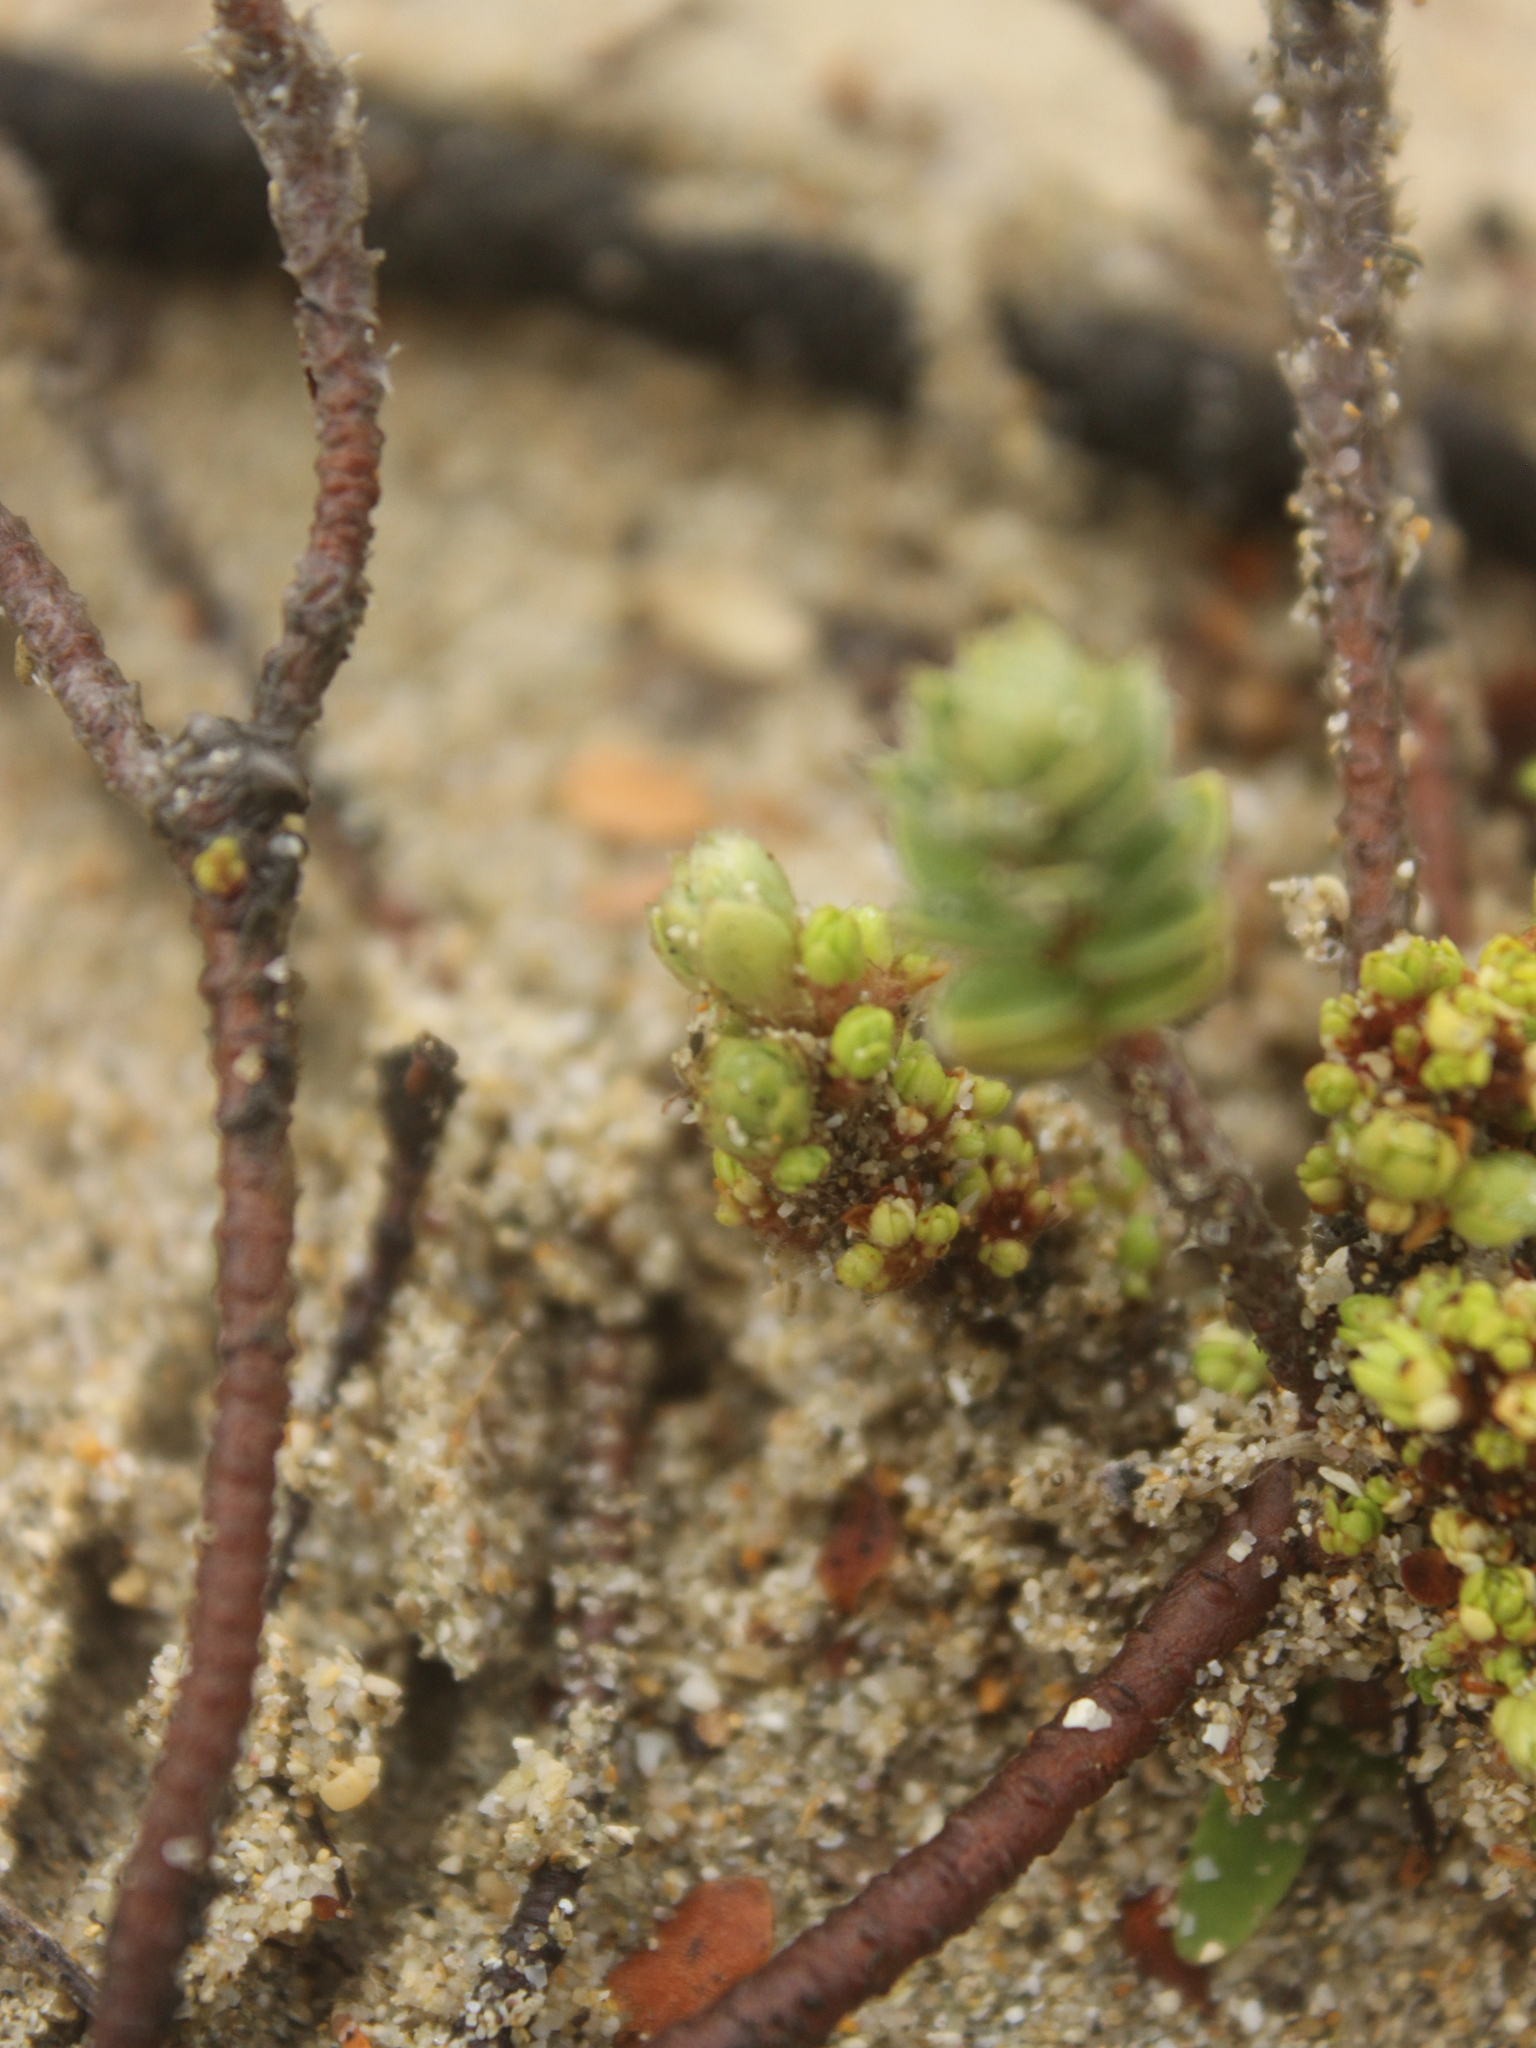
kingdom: Plantae
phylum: Tracheophyta
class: Magnoliopsida
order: Malvales
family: Thymelaeaceae
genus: Pimelea
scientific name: Pimelea villosa
